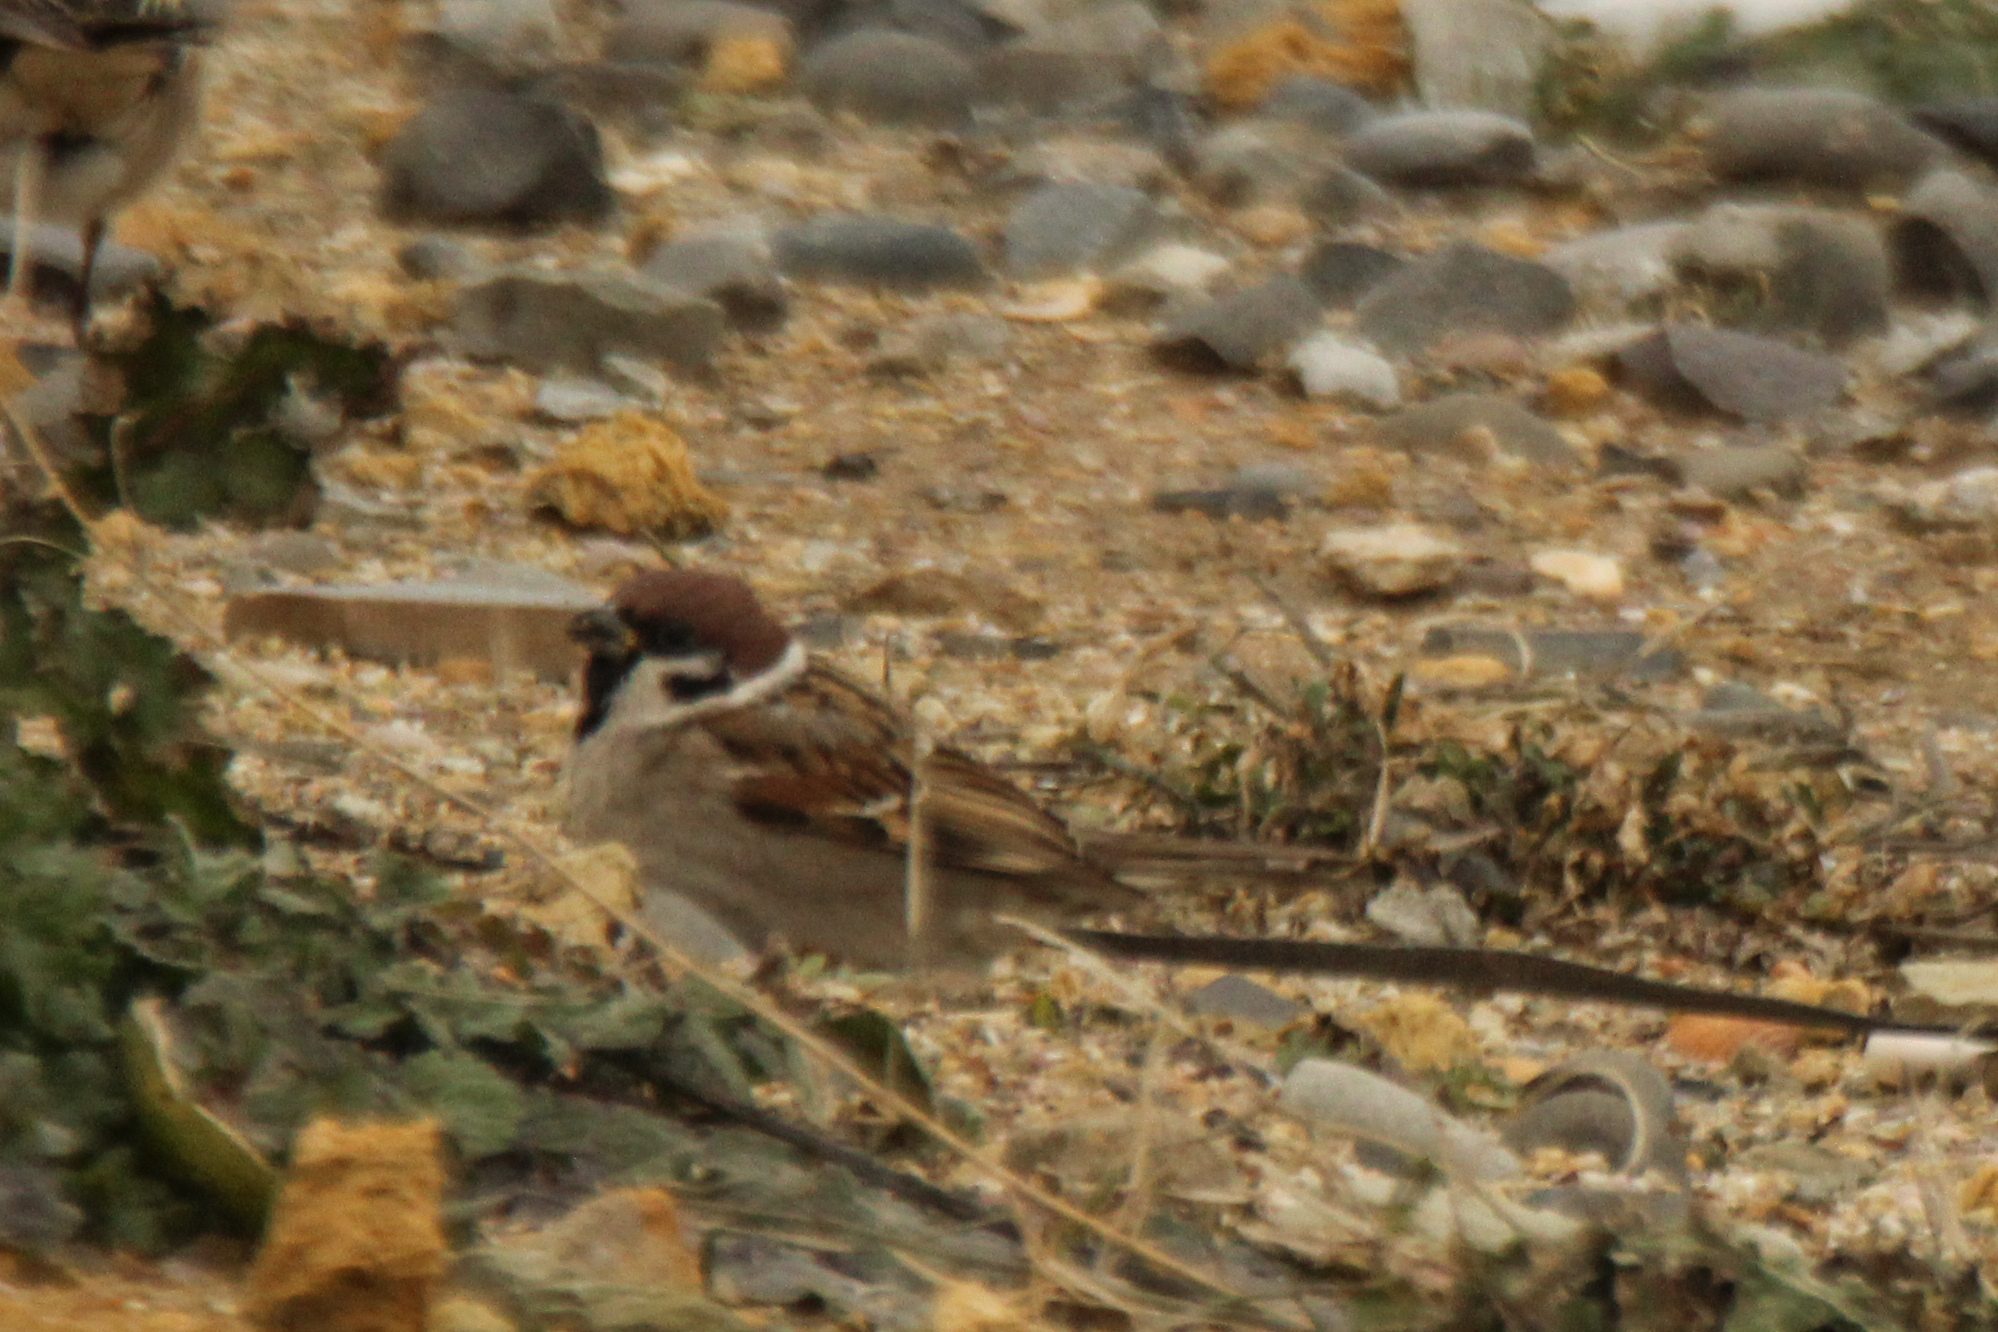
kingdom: Animalia
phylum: Chordata
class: Aves
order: Passeriformes
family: Passeridae
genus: Passer
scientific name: Passer montanus
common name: Eurasian tree sparrow
